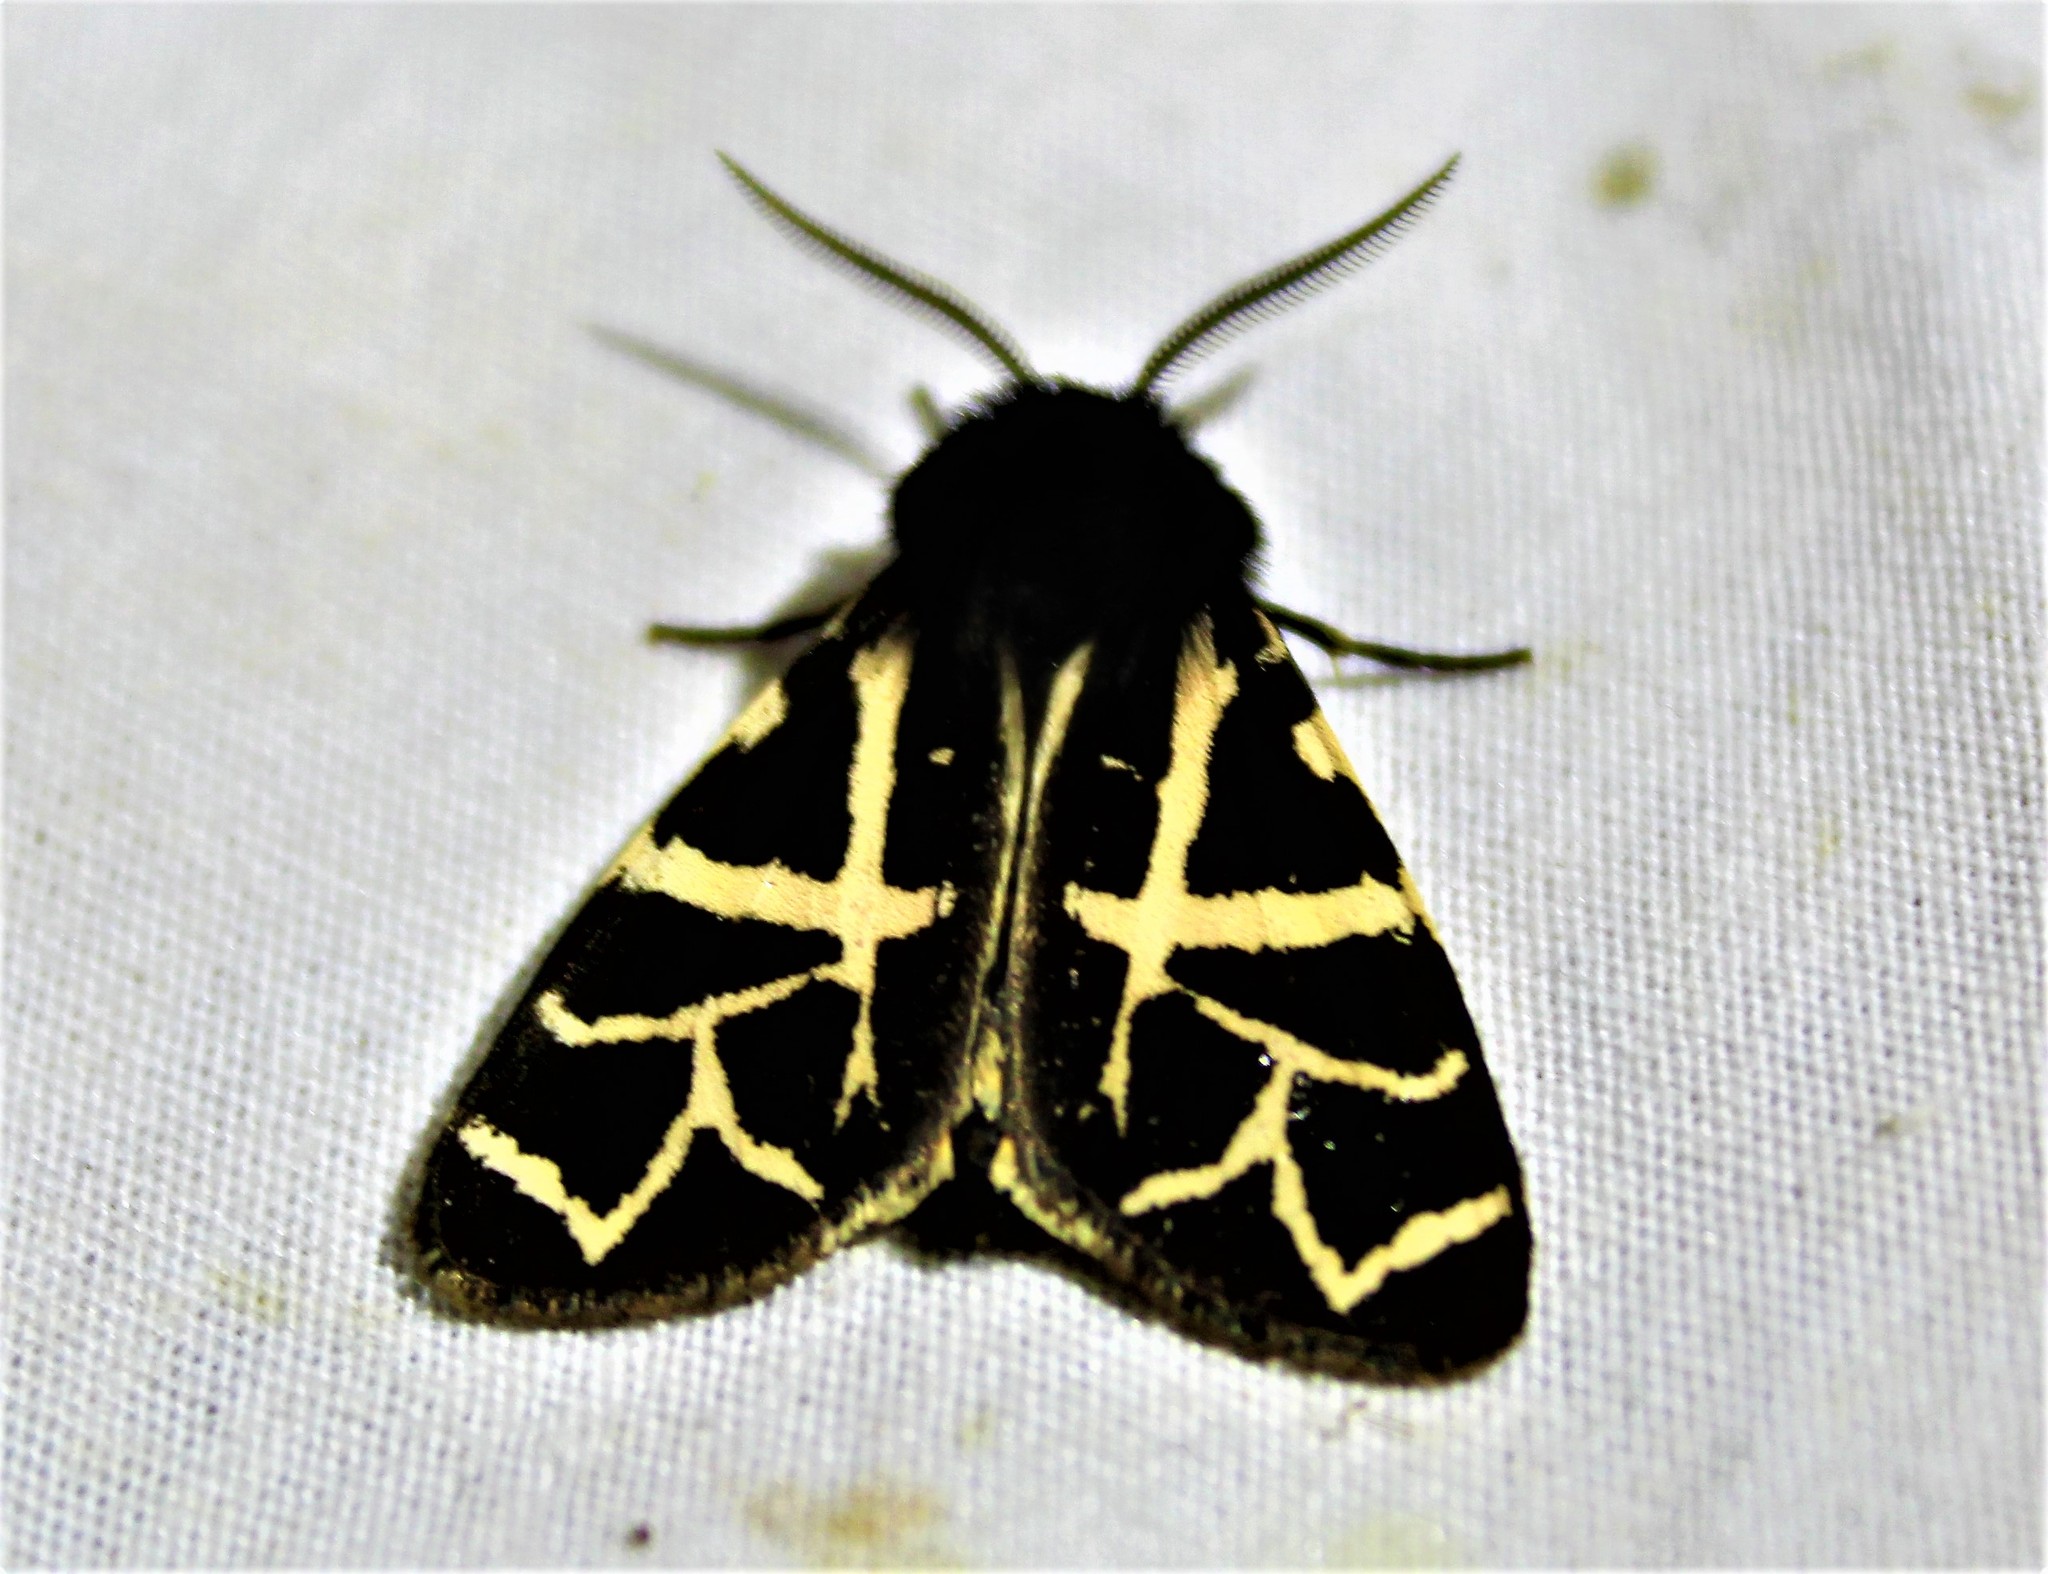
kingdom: Animalia
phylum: Arthropoda
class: Insecta
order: Lepidoptera
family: Erebidae
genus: Apantesis
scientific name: Apantesis
